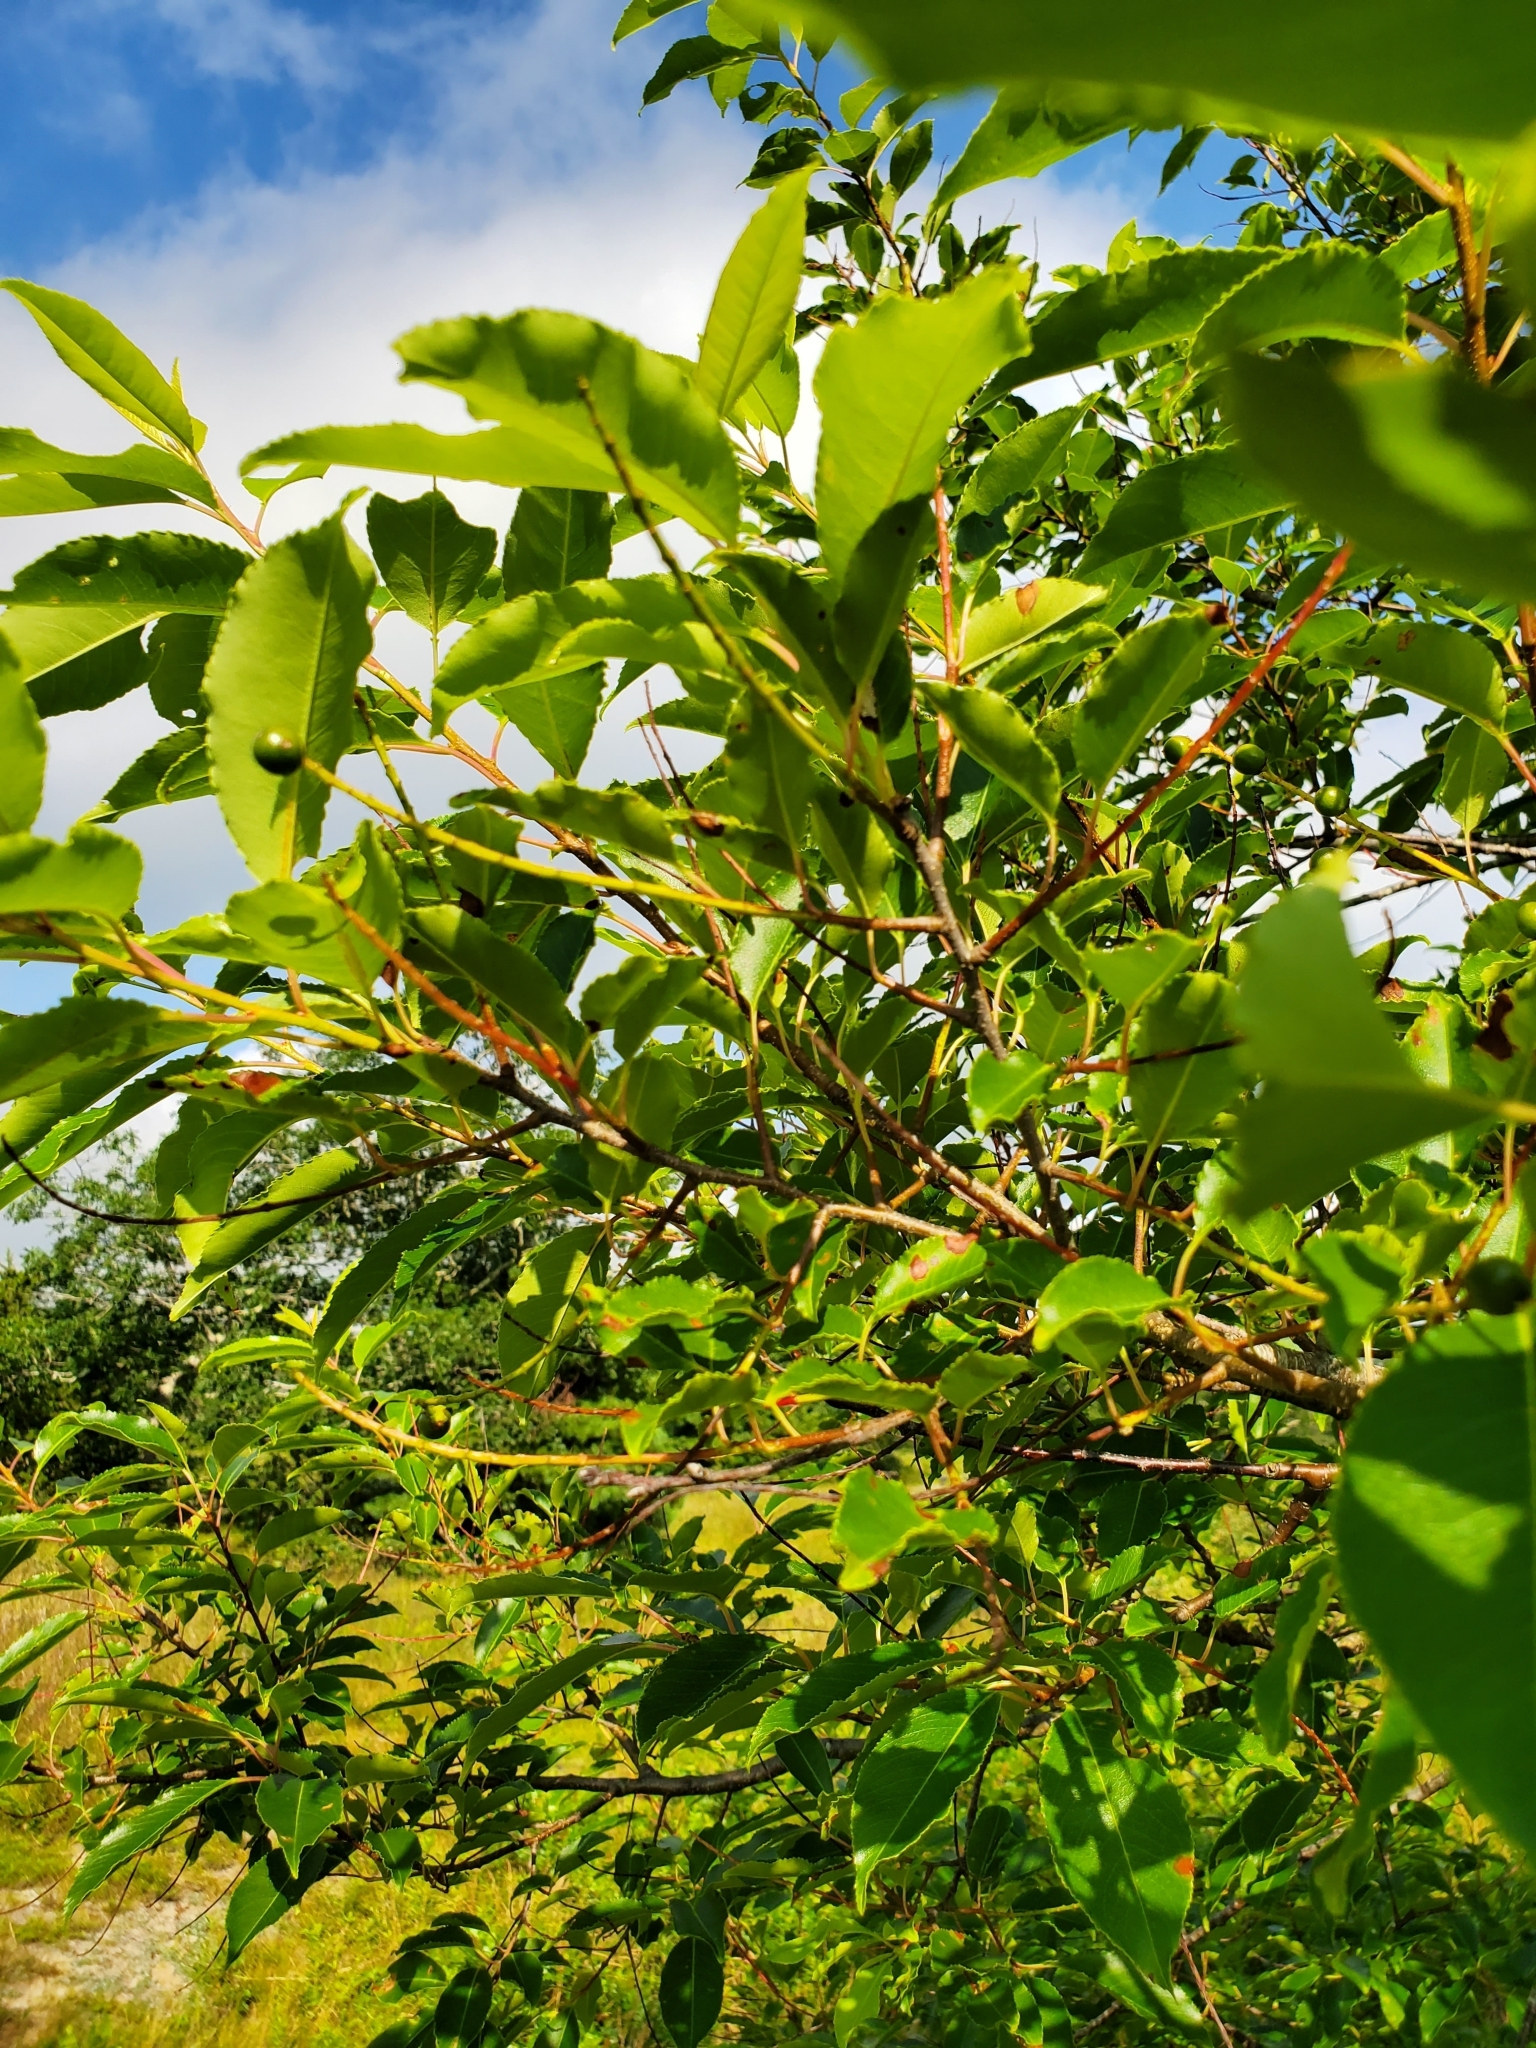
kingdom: Plantae
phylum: Tracheophyta
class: Magnoliopsida
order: Rosales
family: Rosaceae
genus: Prunus
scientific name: Prunus serotina
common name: Black cherry
